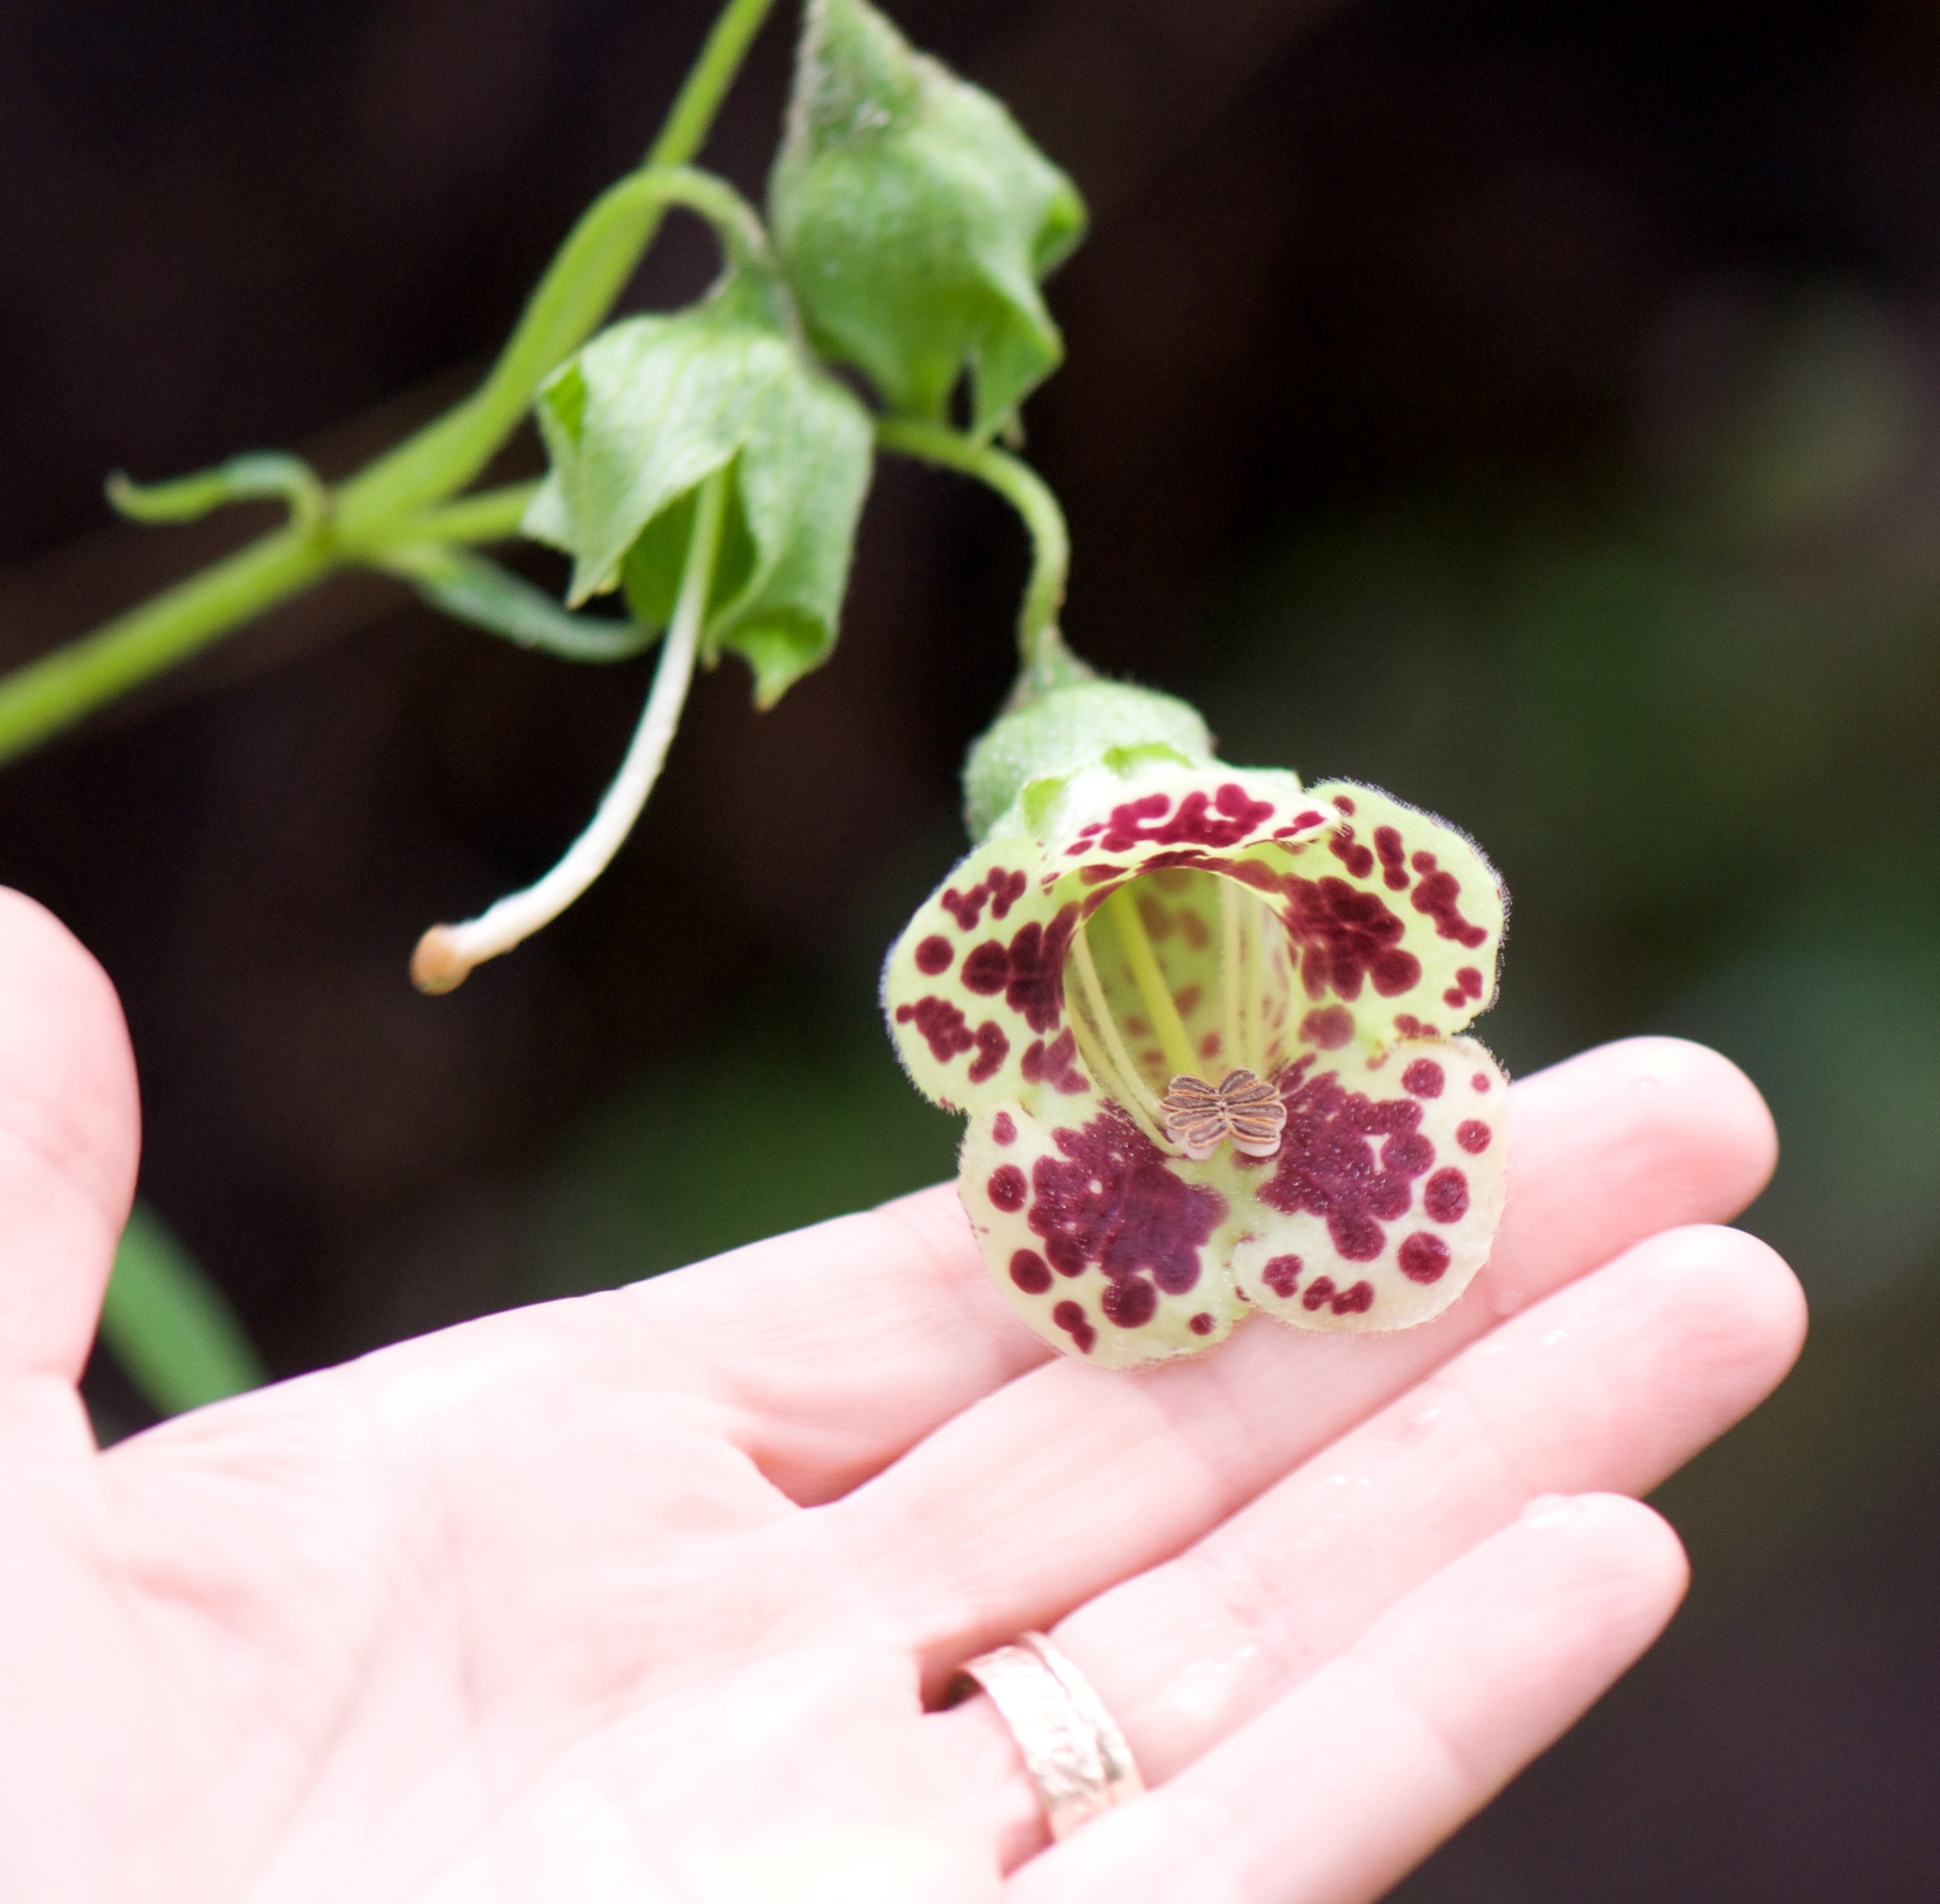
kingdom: Plantae
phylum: Tracheophyta
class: Magnoliopsida
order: Lamiales
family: Gesneriaceae
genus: Kohleria
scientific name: Kohleria tigridia
